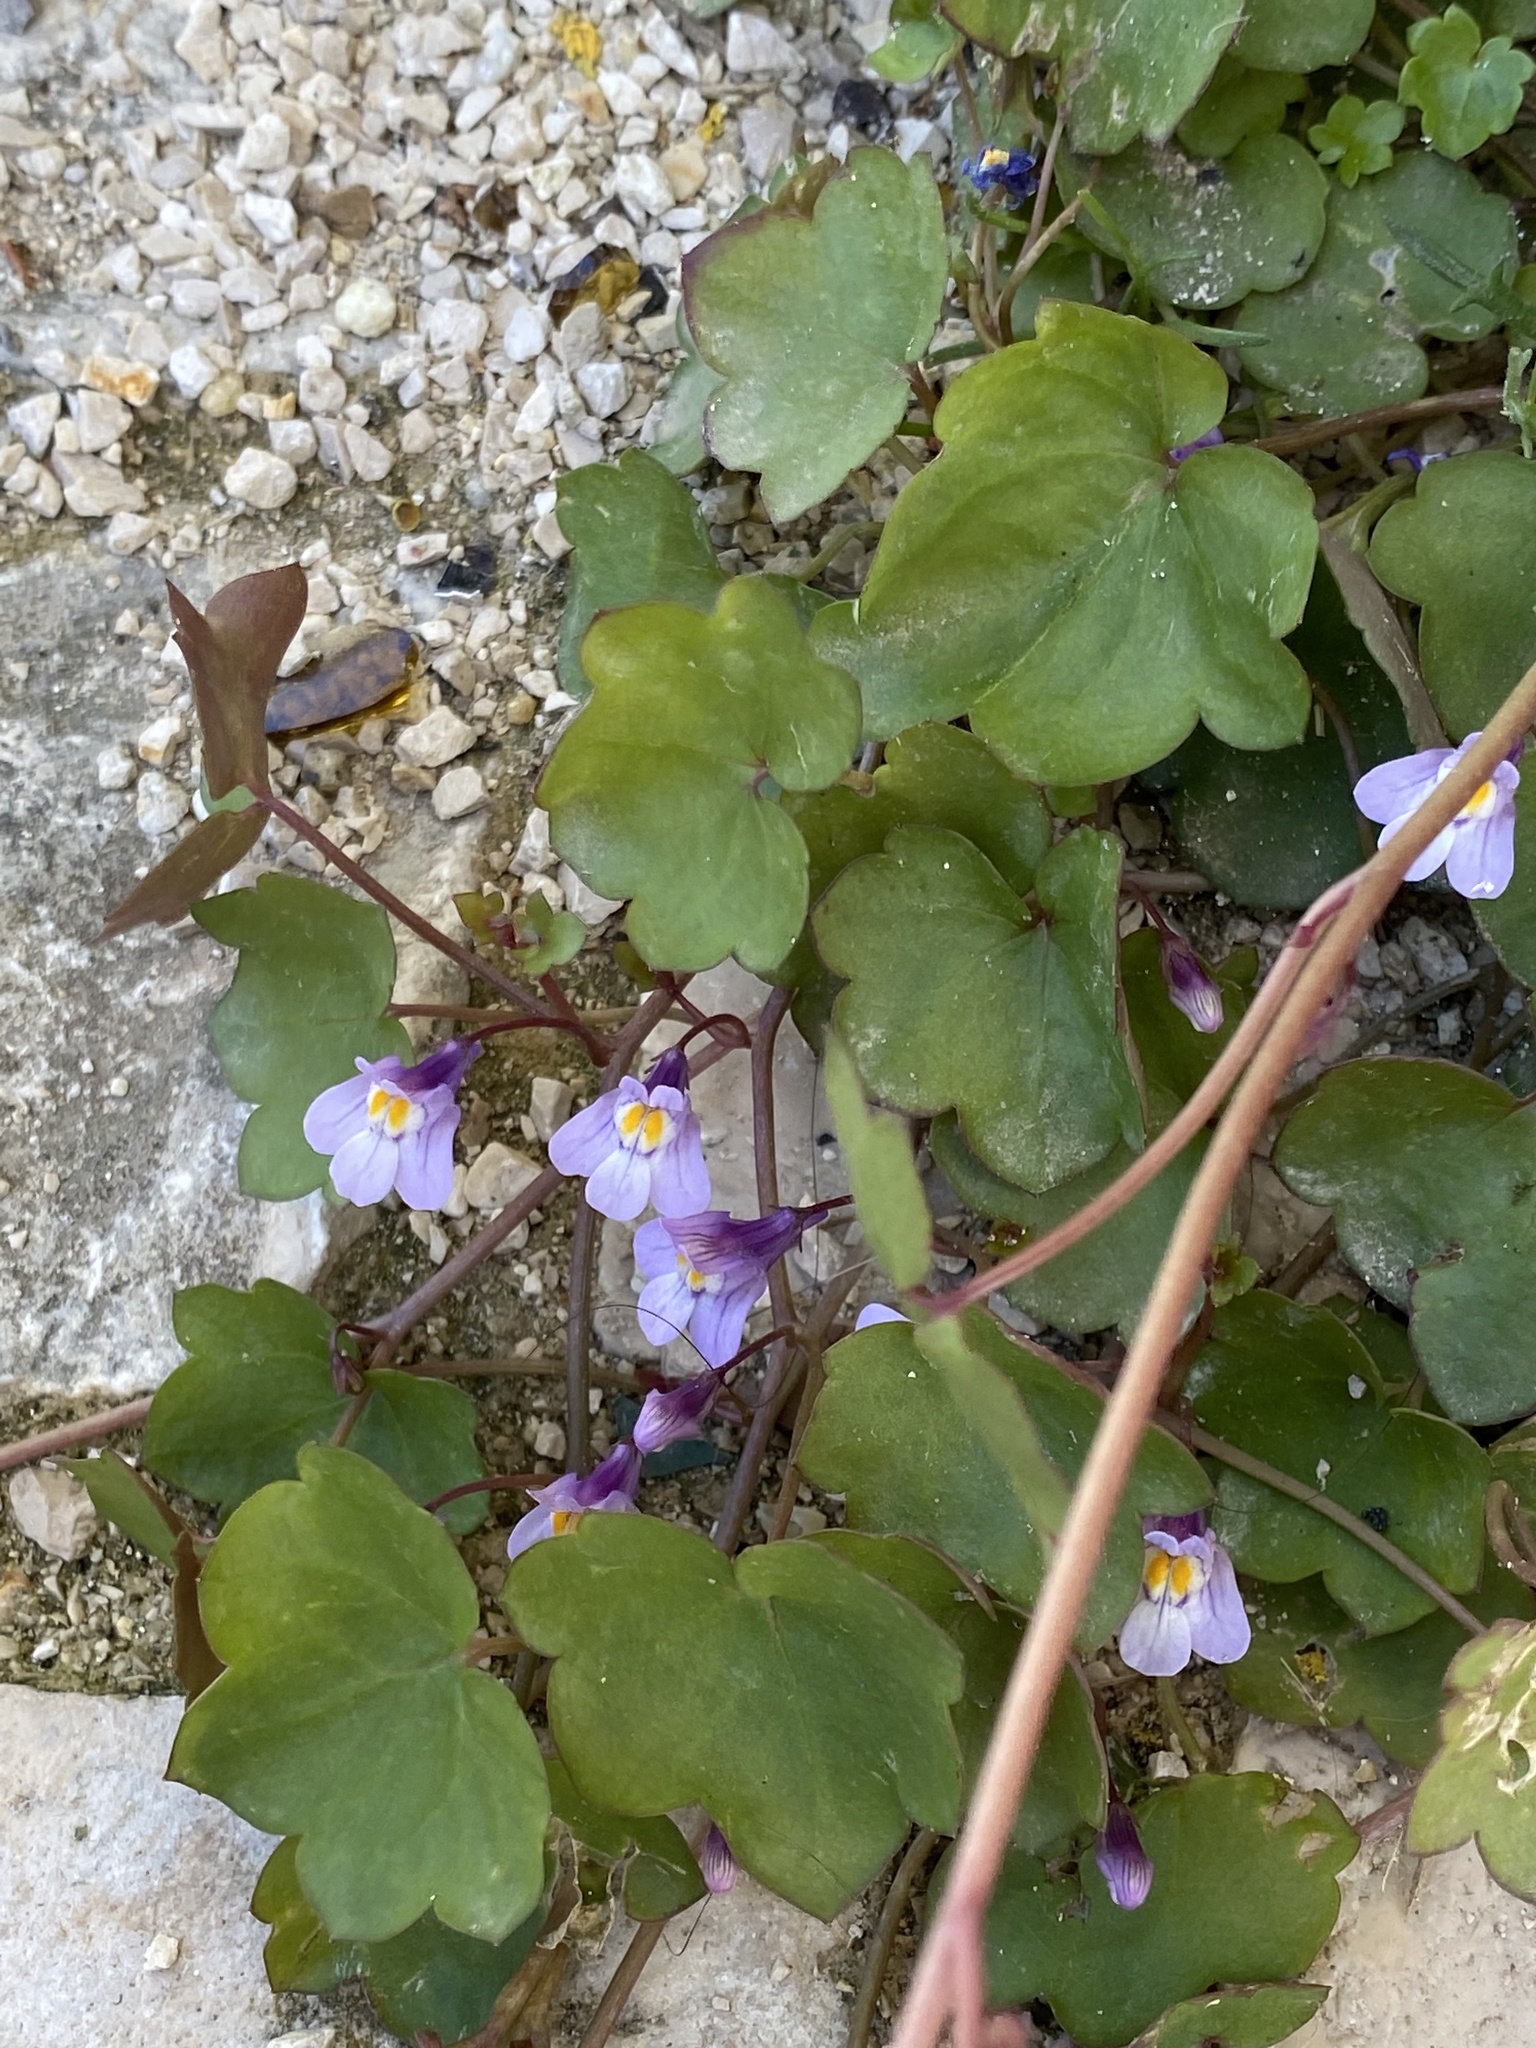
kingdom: Plantae
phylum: Tracheophyta
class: Magnoliopsida
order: Lamiales
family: Plantaginaceae
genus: Cymbalaria
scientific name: Cymbalaria muralis
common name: Ivy-leaved toadflax
